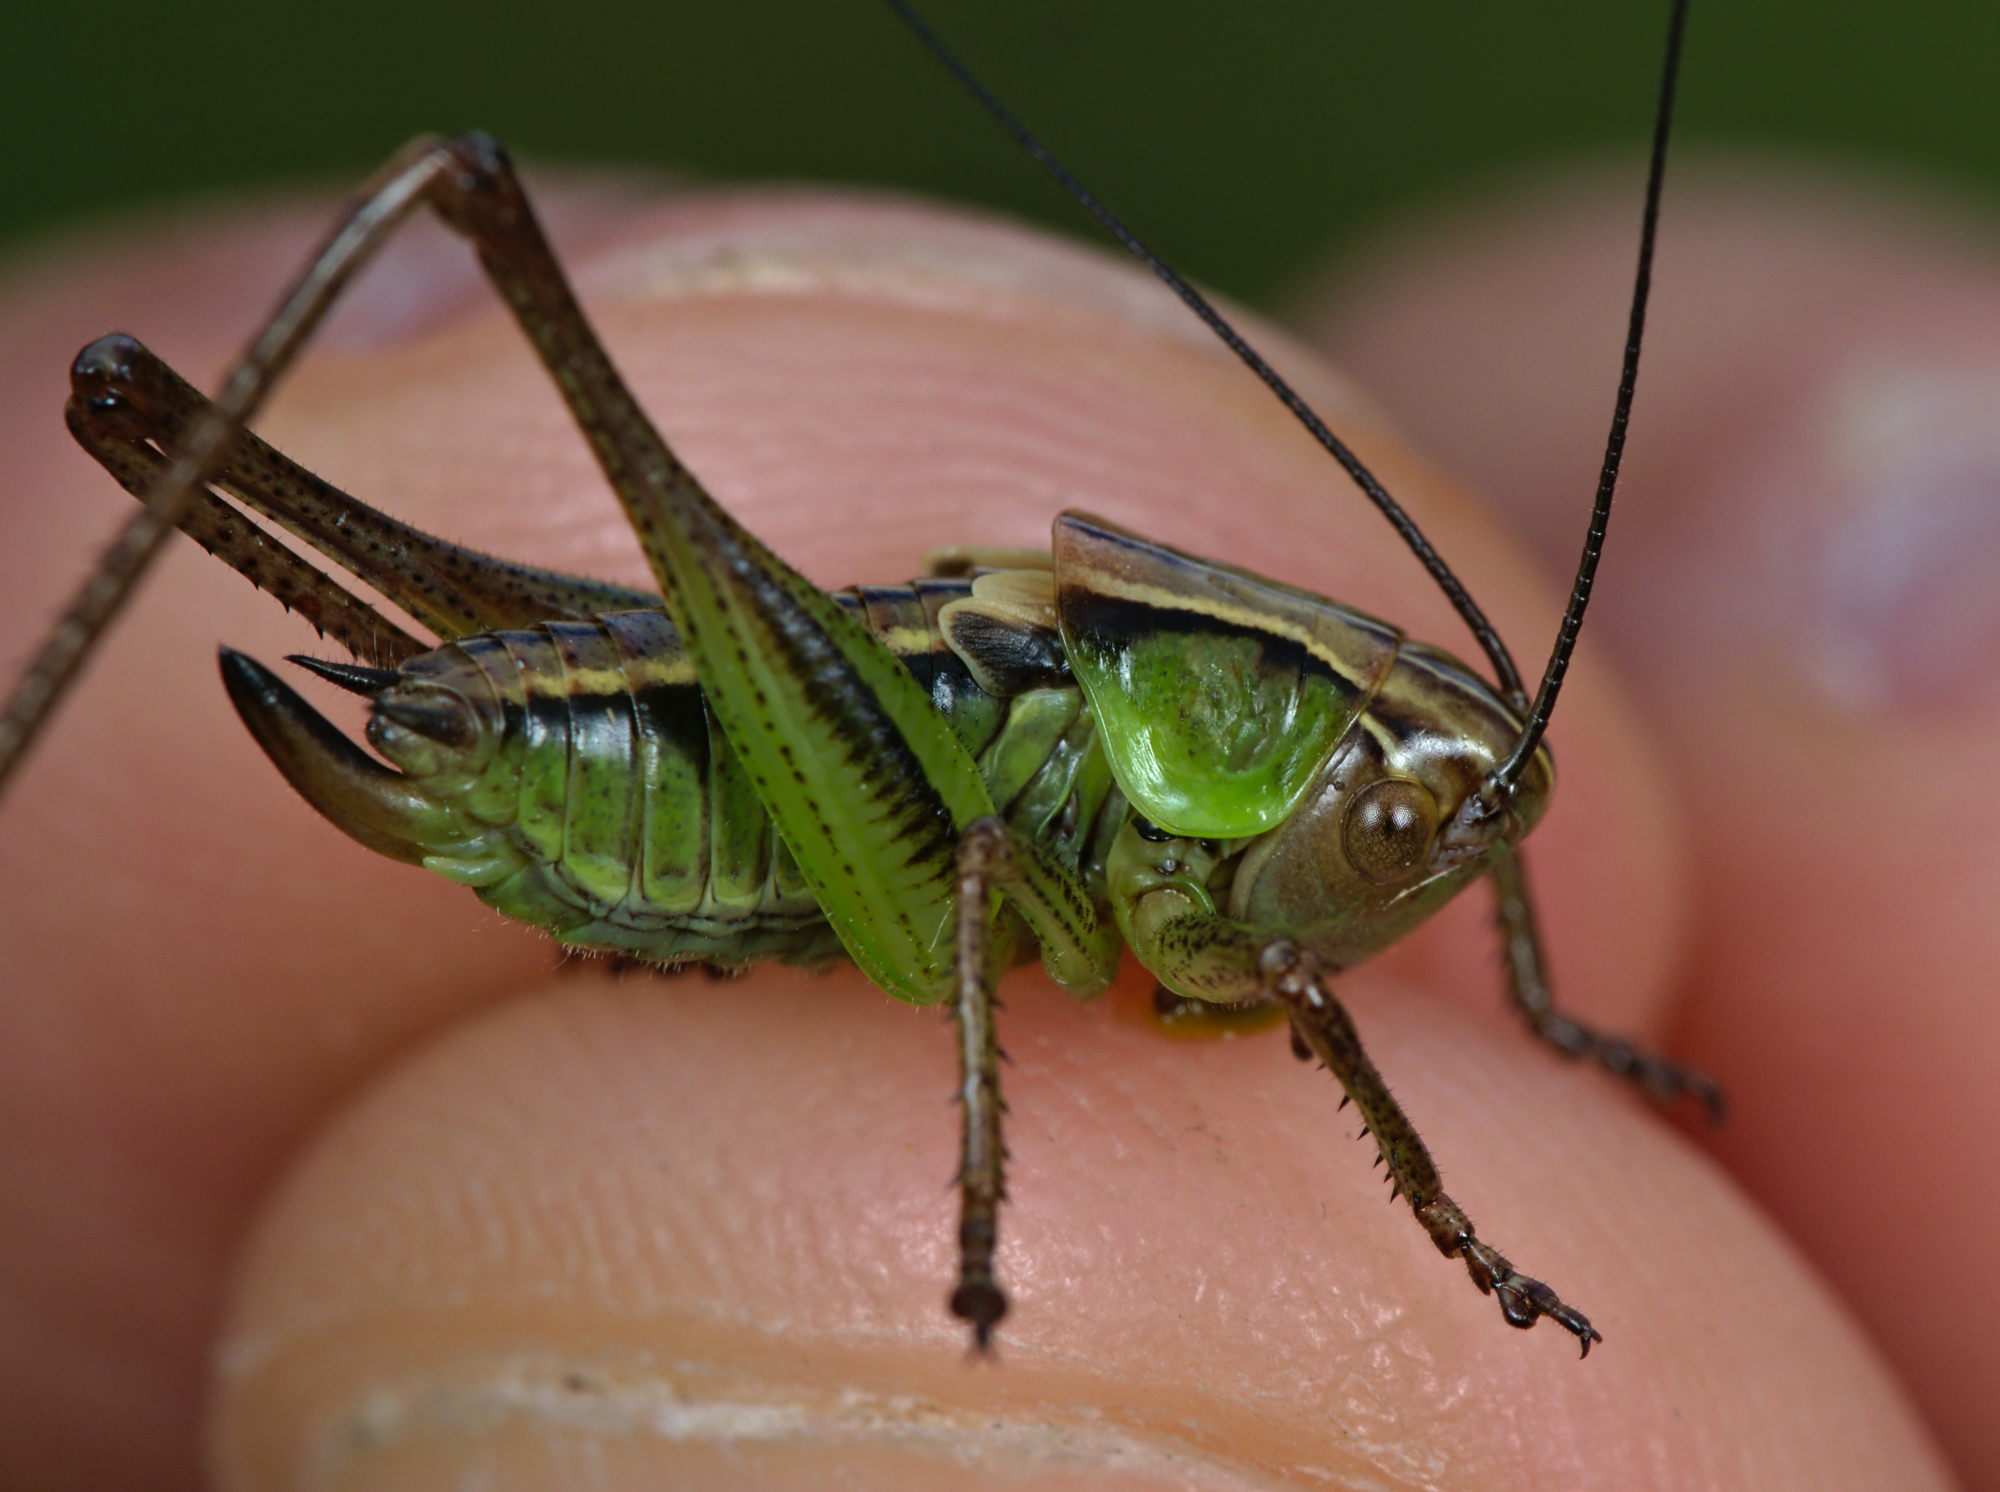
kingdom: Animalia
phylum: Arthropoda
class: Insecta
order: Orthoptera
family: Tettigoniidae
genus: Roeseliana
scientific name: Roeseliana roeselii
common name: Roesel's bush cricket
